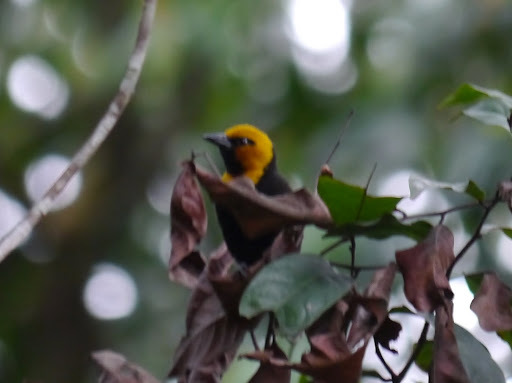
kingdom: Animalia
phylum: Chordata
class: Aves
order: Passeriformes
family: Ploceidae
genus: Ploceus
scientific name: Ploceus melanogaster
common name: Black-billed weaver
